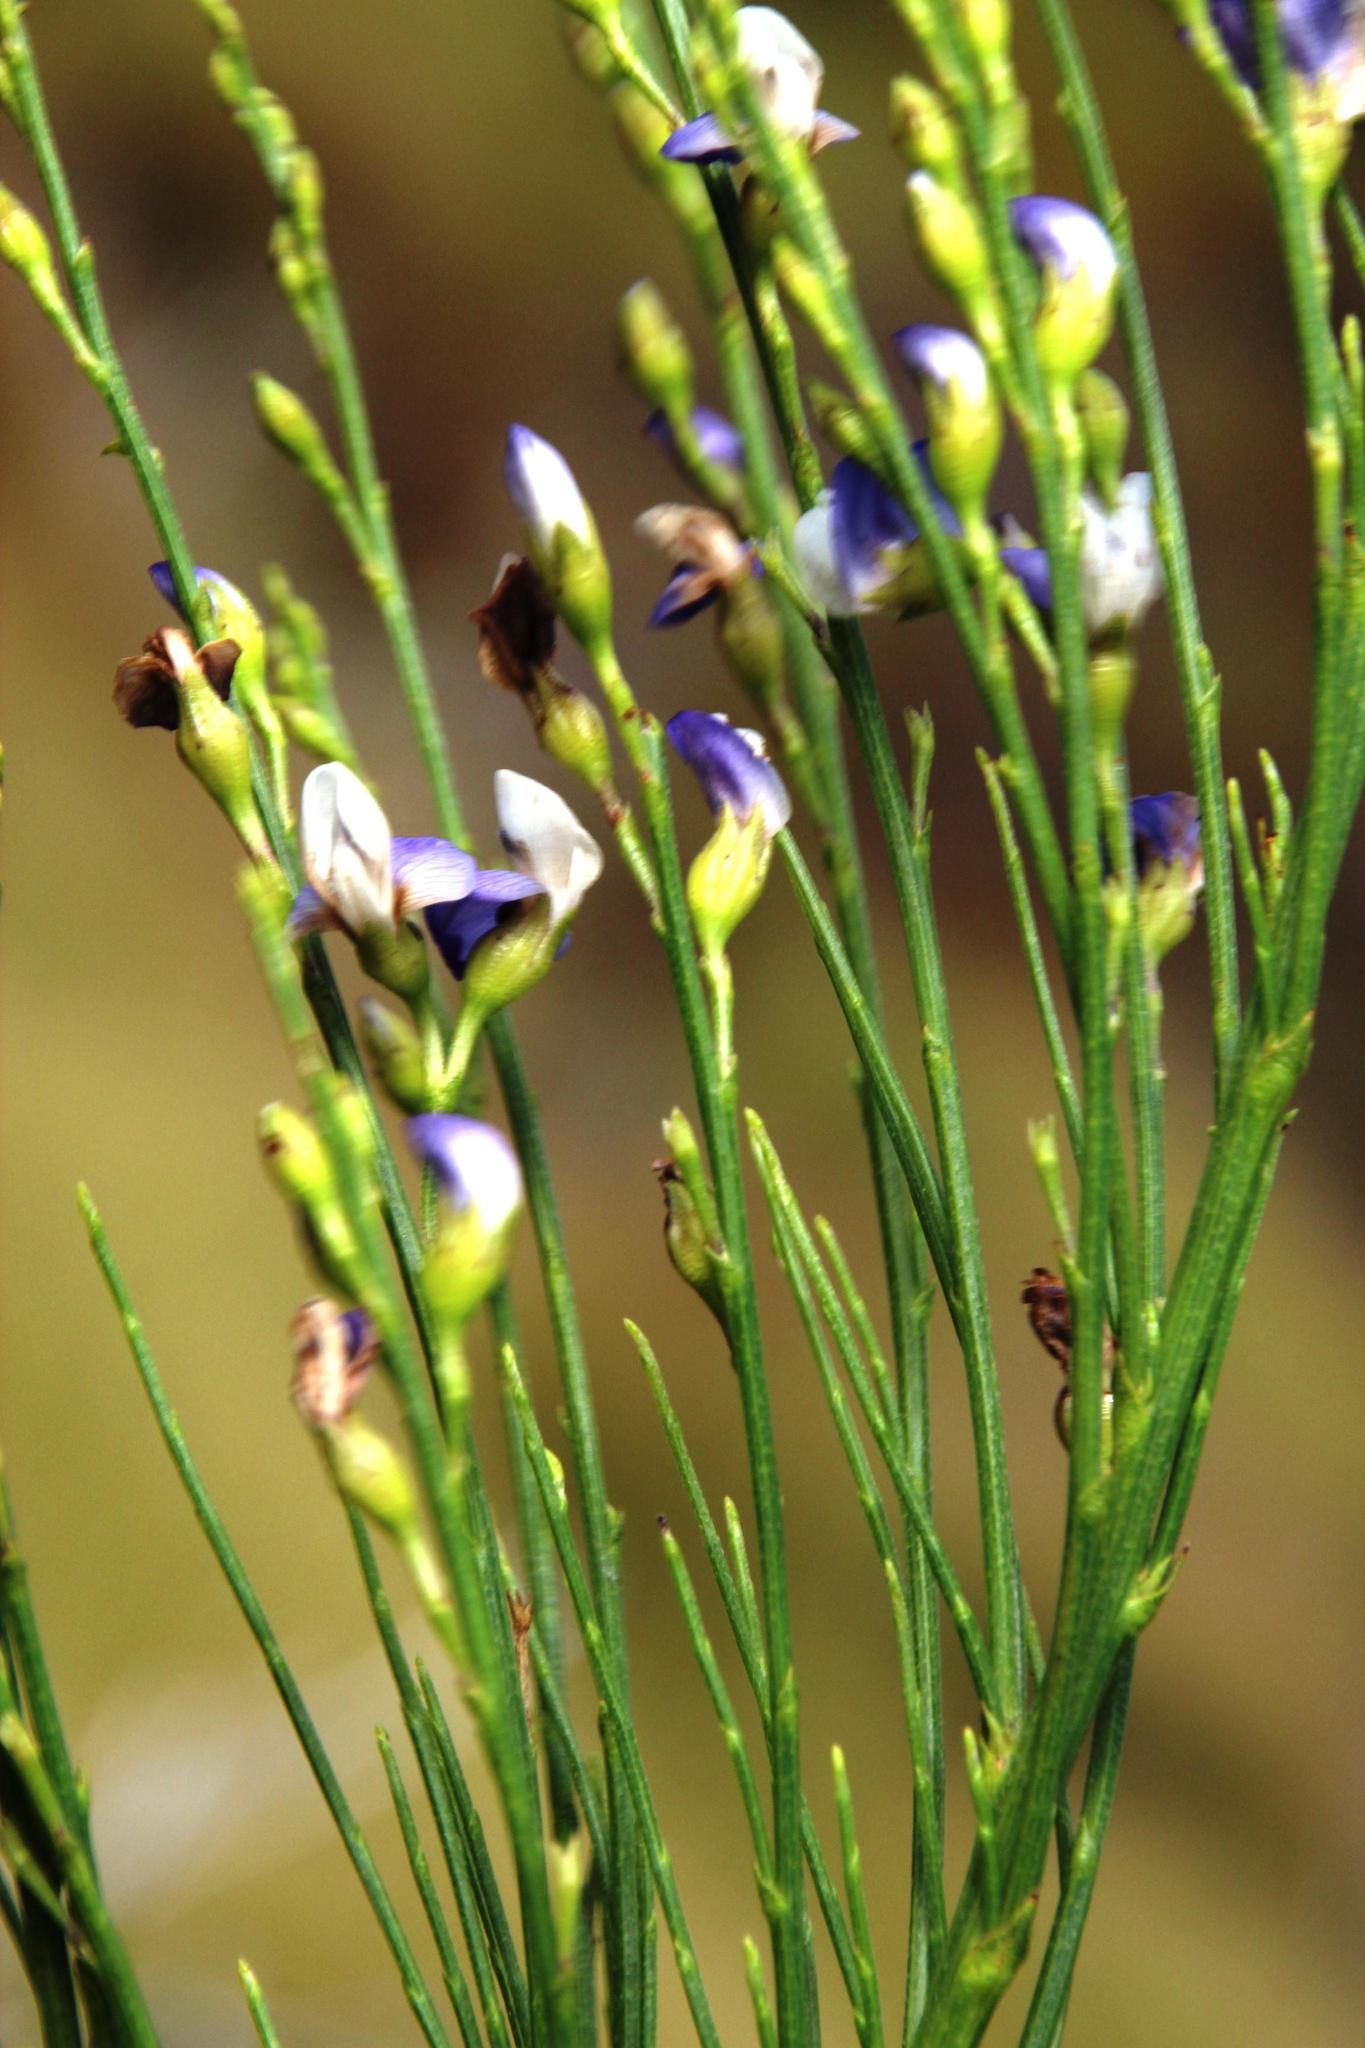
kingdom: Plantae
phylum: Tracheophyta
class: Magnoliopsida
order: Fabales
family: Fabaceae
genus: Psoralea
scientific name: Psoralea usitata
